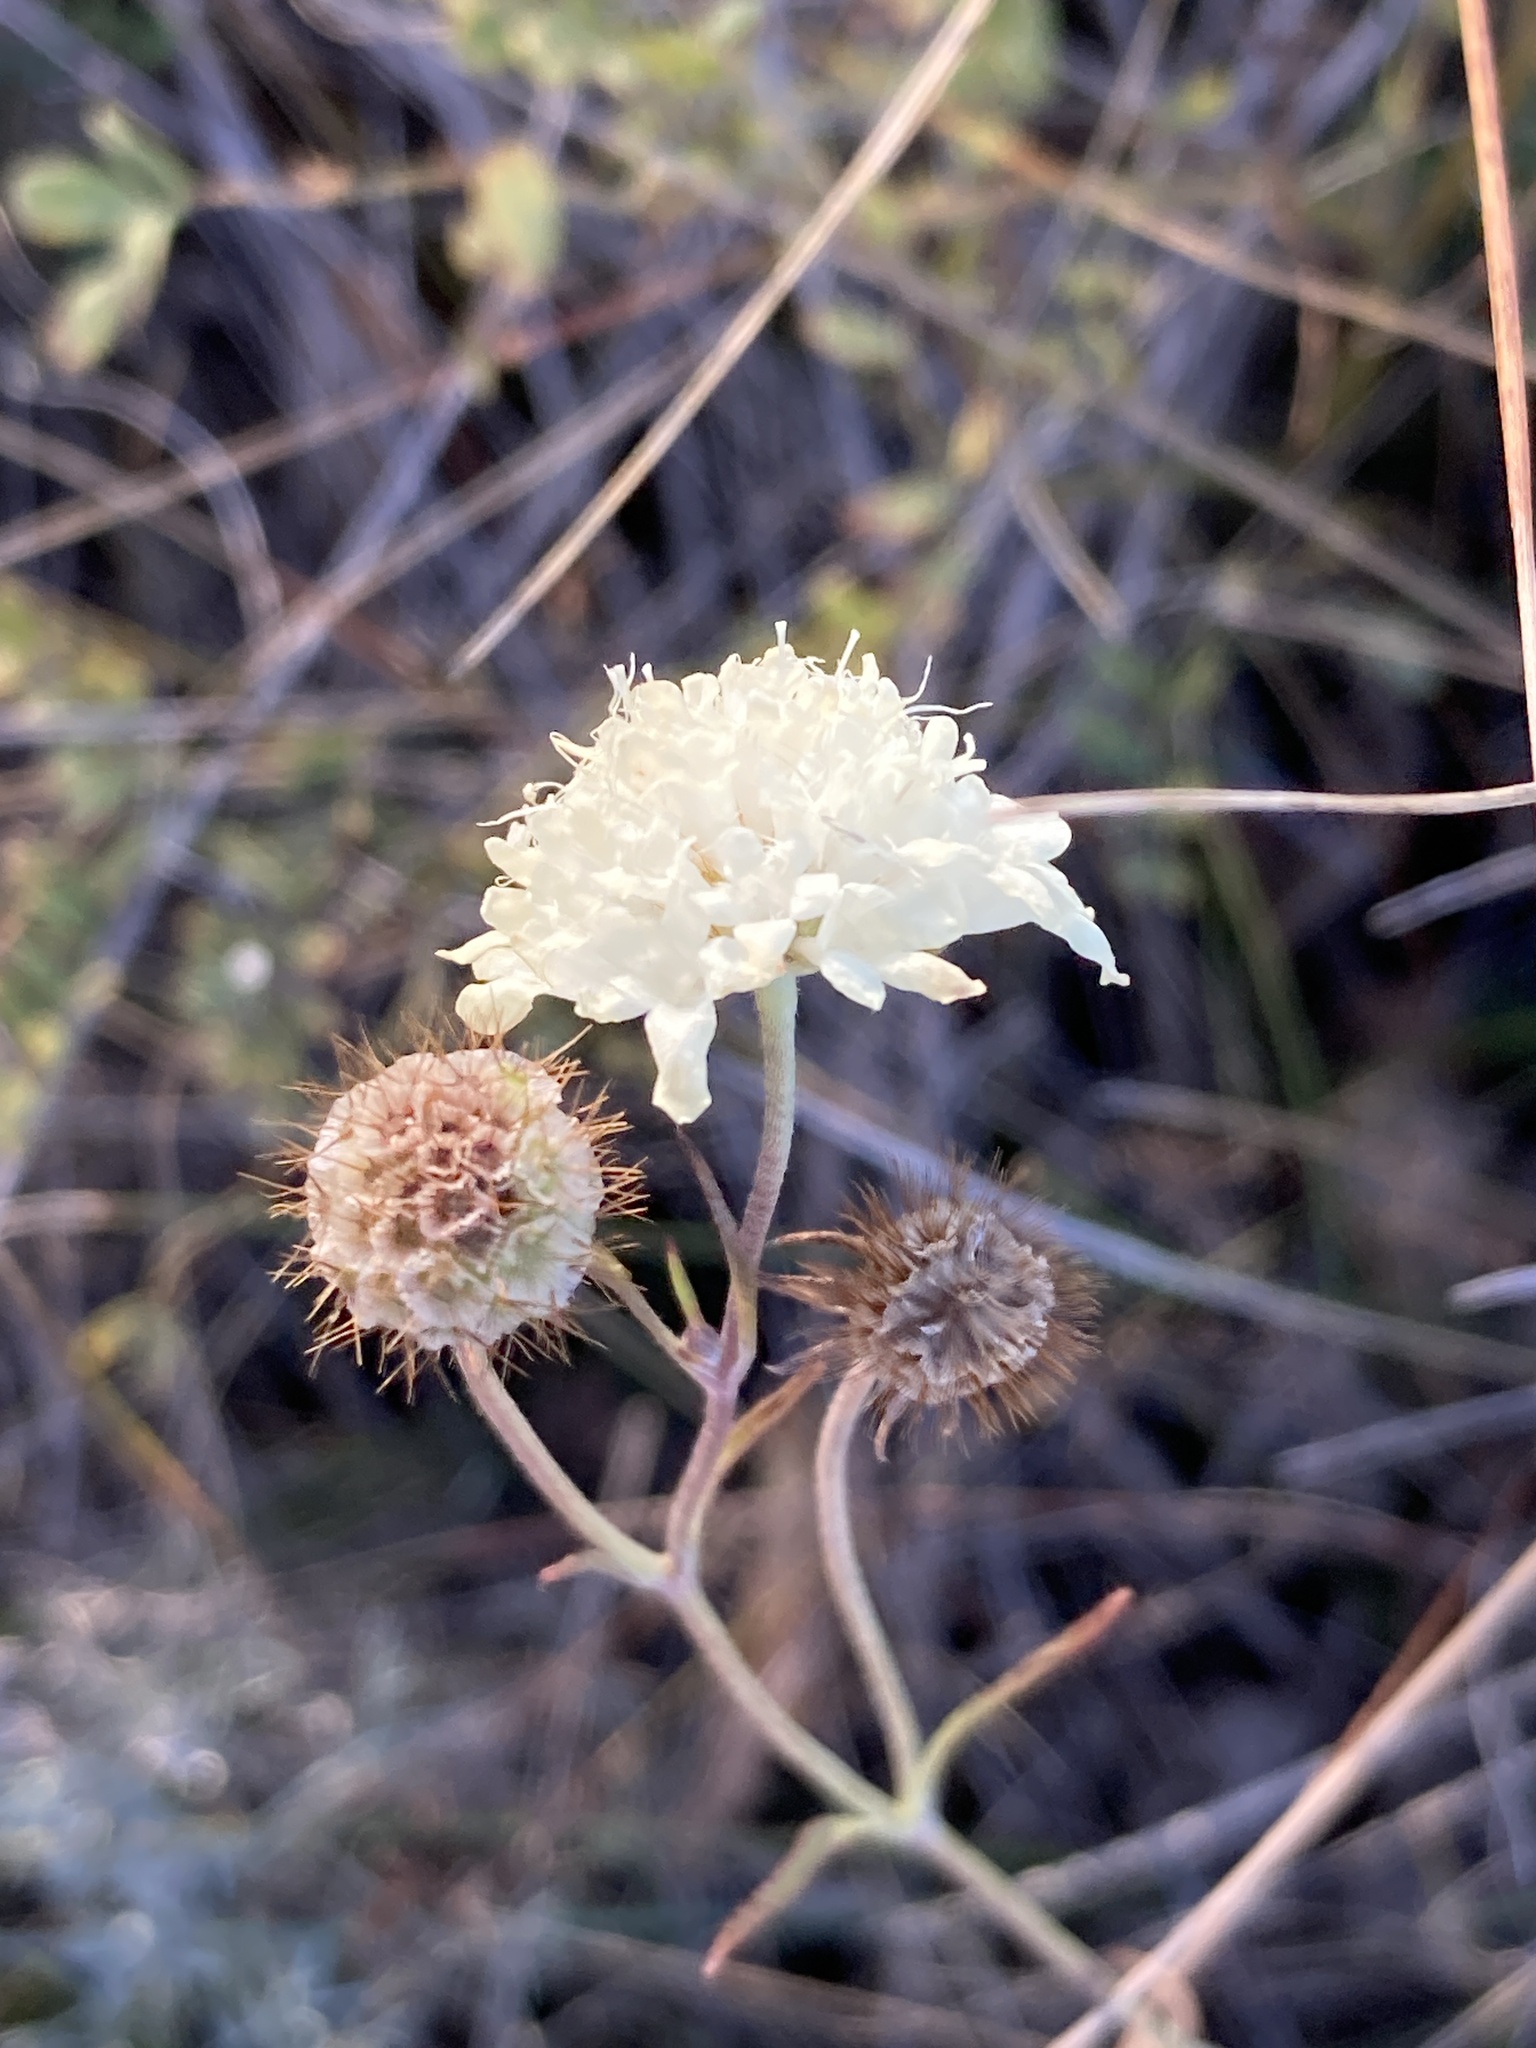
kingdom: Plantae
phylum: Tracheophyta
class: Magnoliopsida
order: Dipsacales
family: Caprifoliaceae
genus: Scabiosa
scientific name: Scabiosa ochroleuca
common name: Cream pincushions
